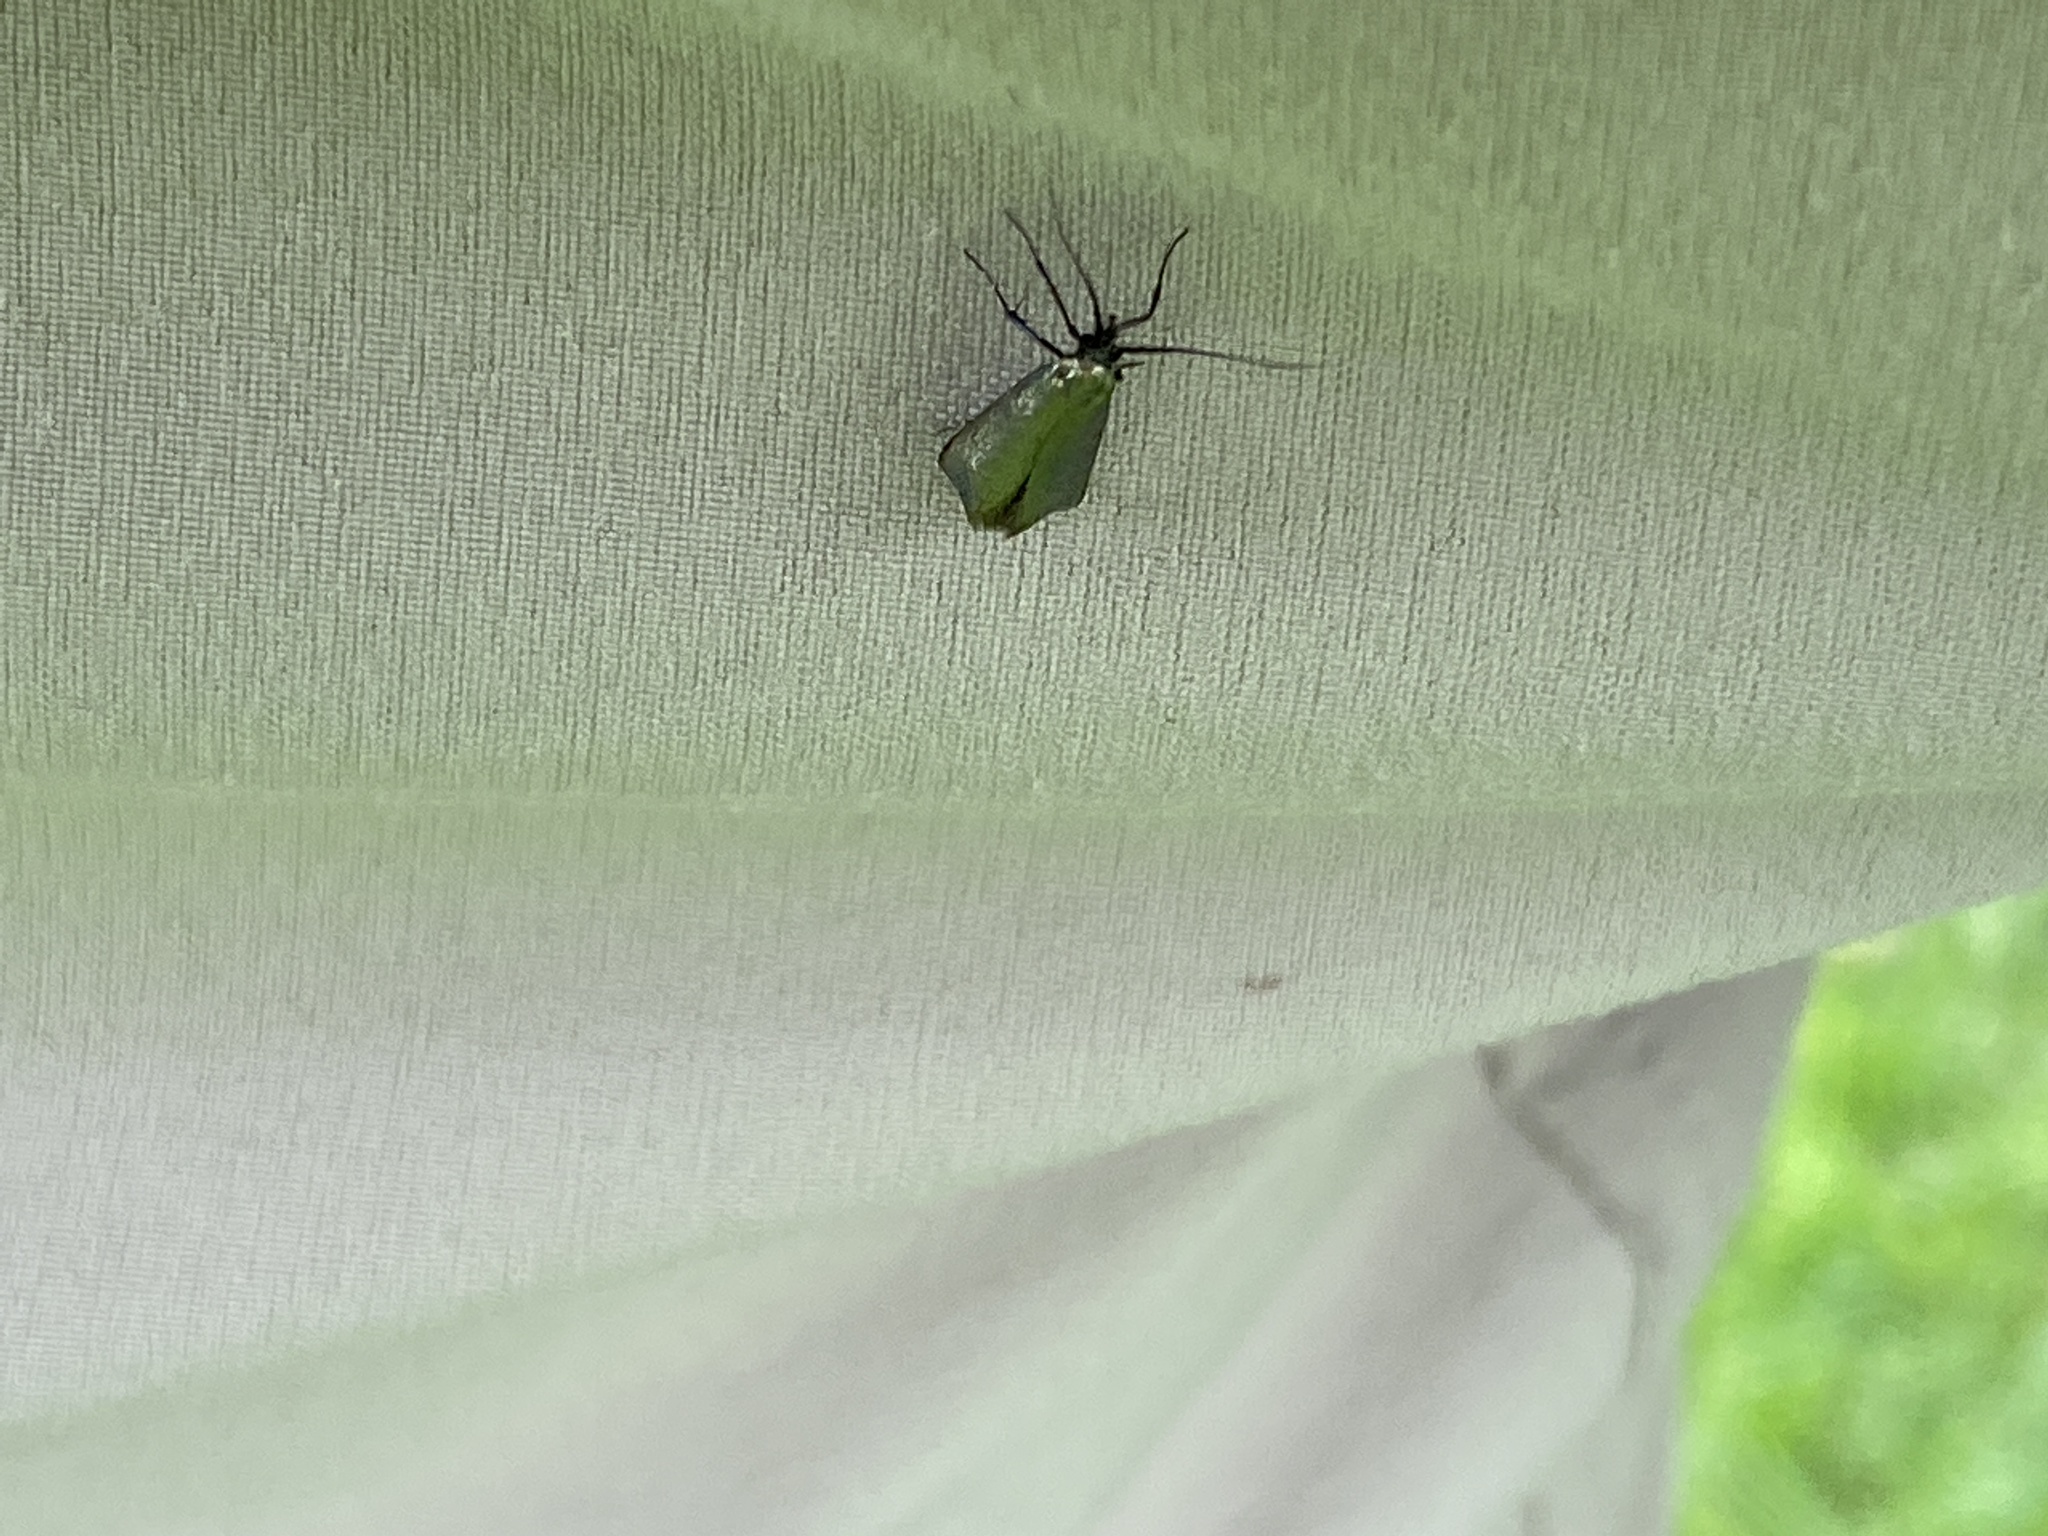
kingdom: Animalia
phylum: Arthropoda
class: Insecta
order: Lepidoptera
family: Adelidae
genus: Adela
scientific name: Adela viridella
